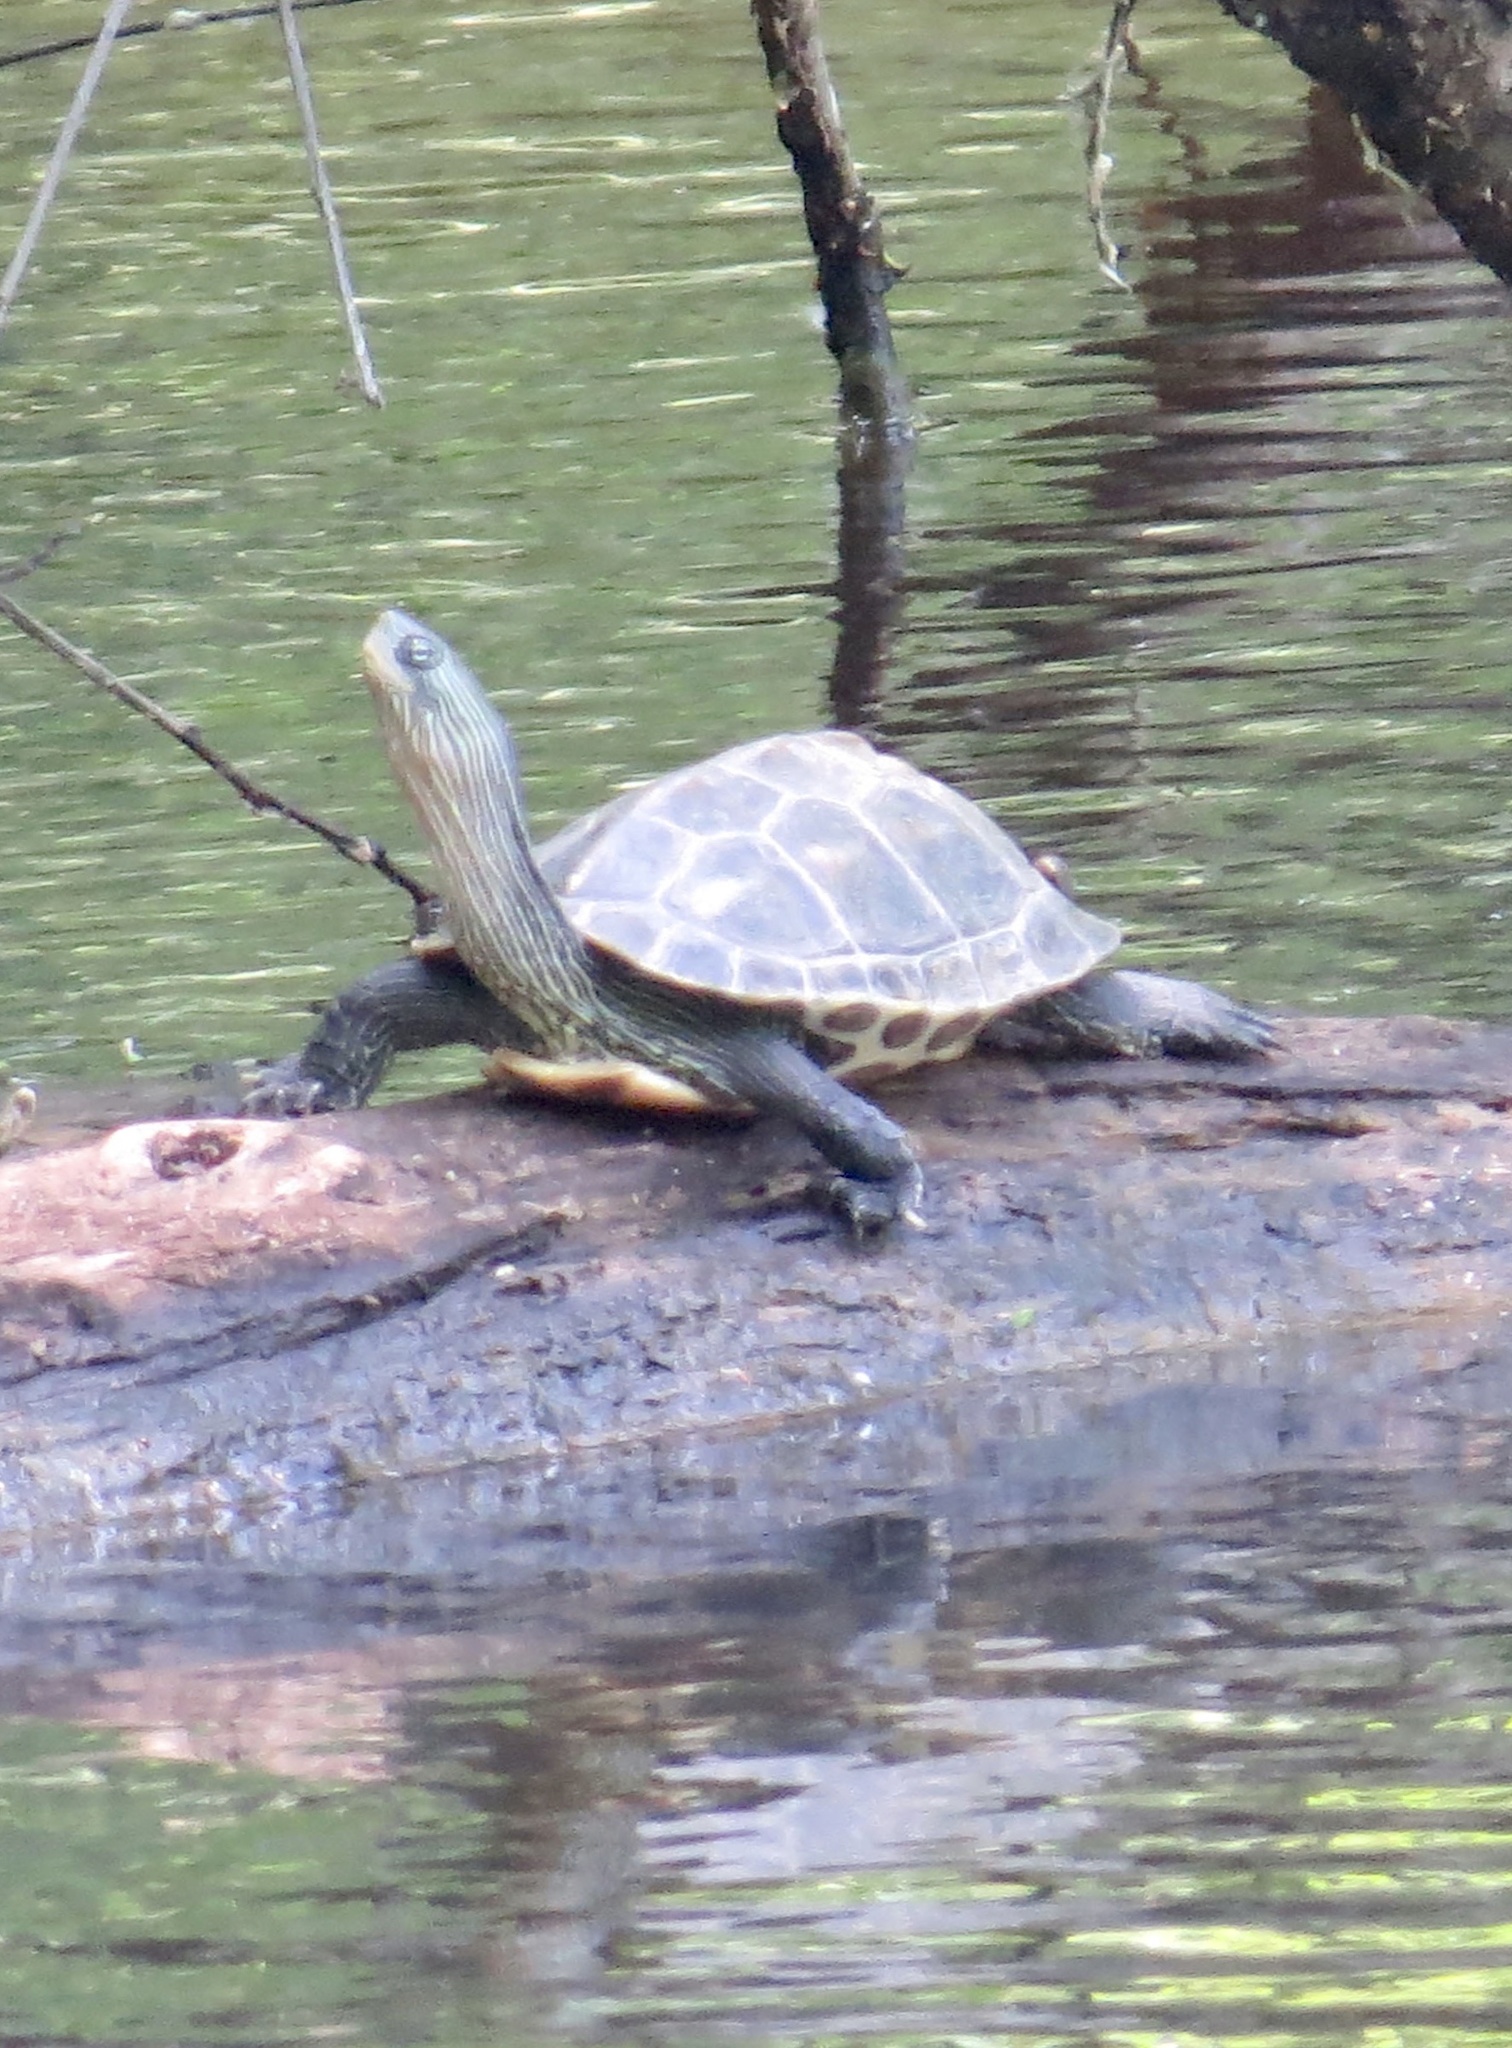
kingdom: Animalia
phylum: Chordata
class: Testudines
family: Geoemydidae
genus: Mauremys
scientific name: Mauremys sinensis
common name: Chinese stripe-necked turtle
